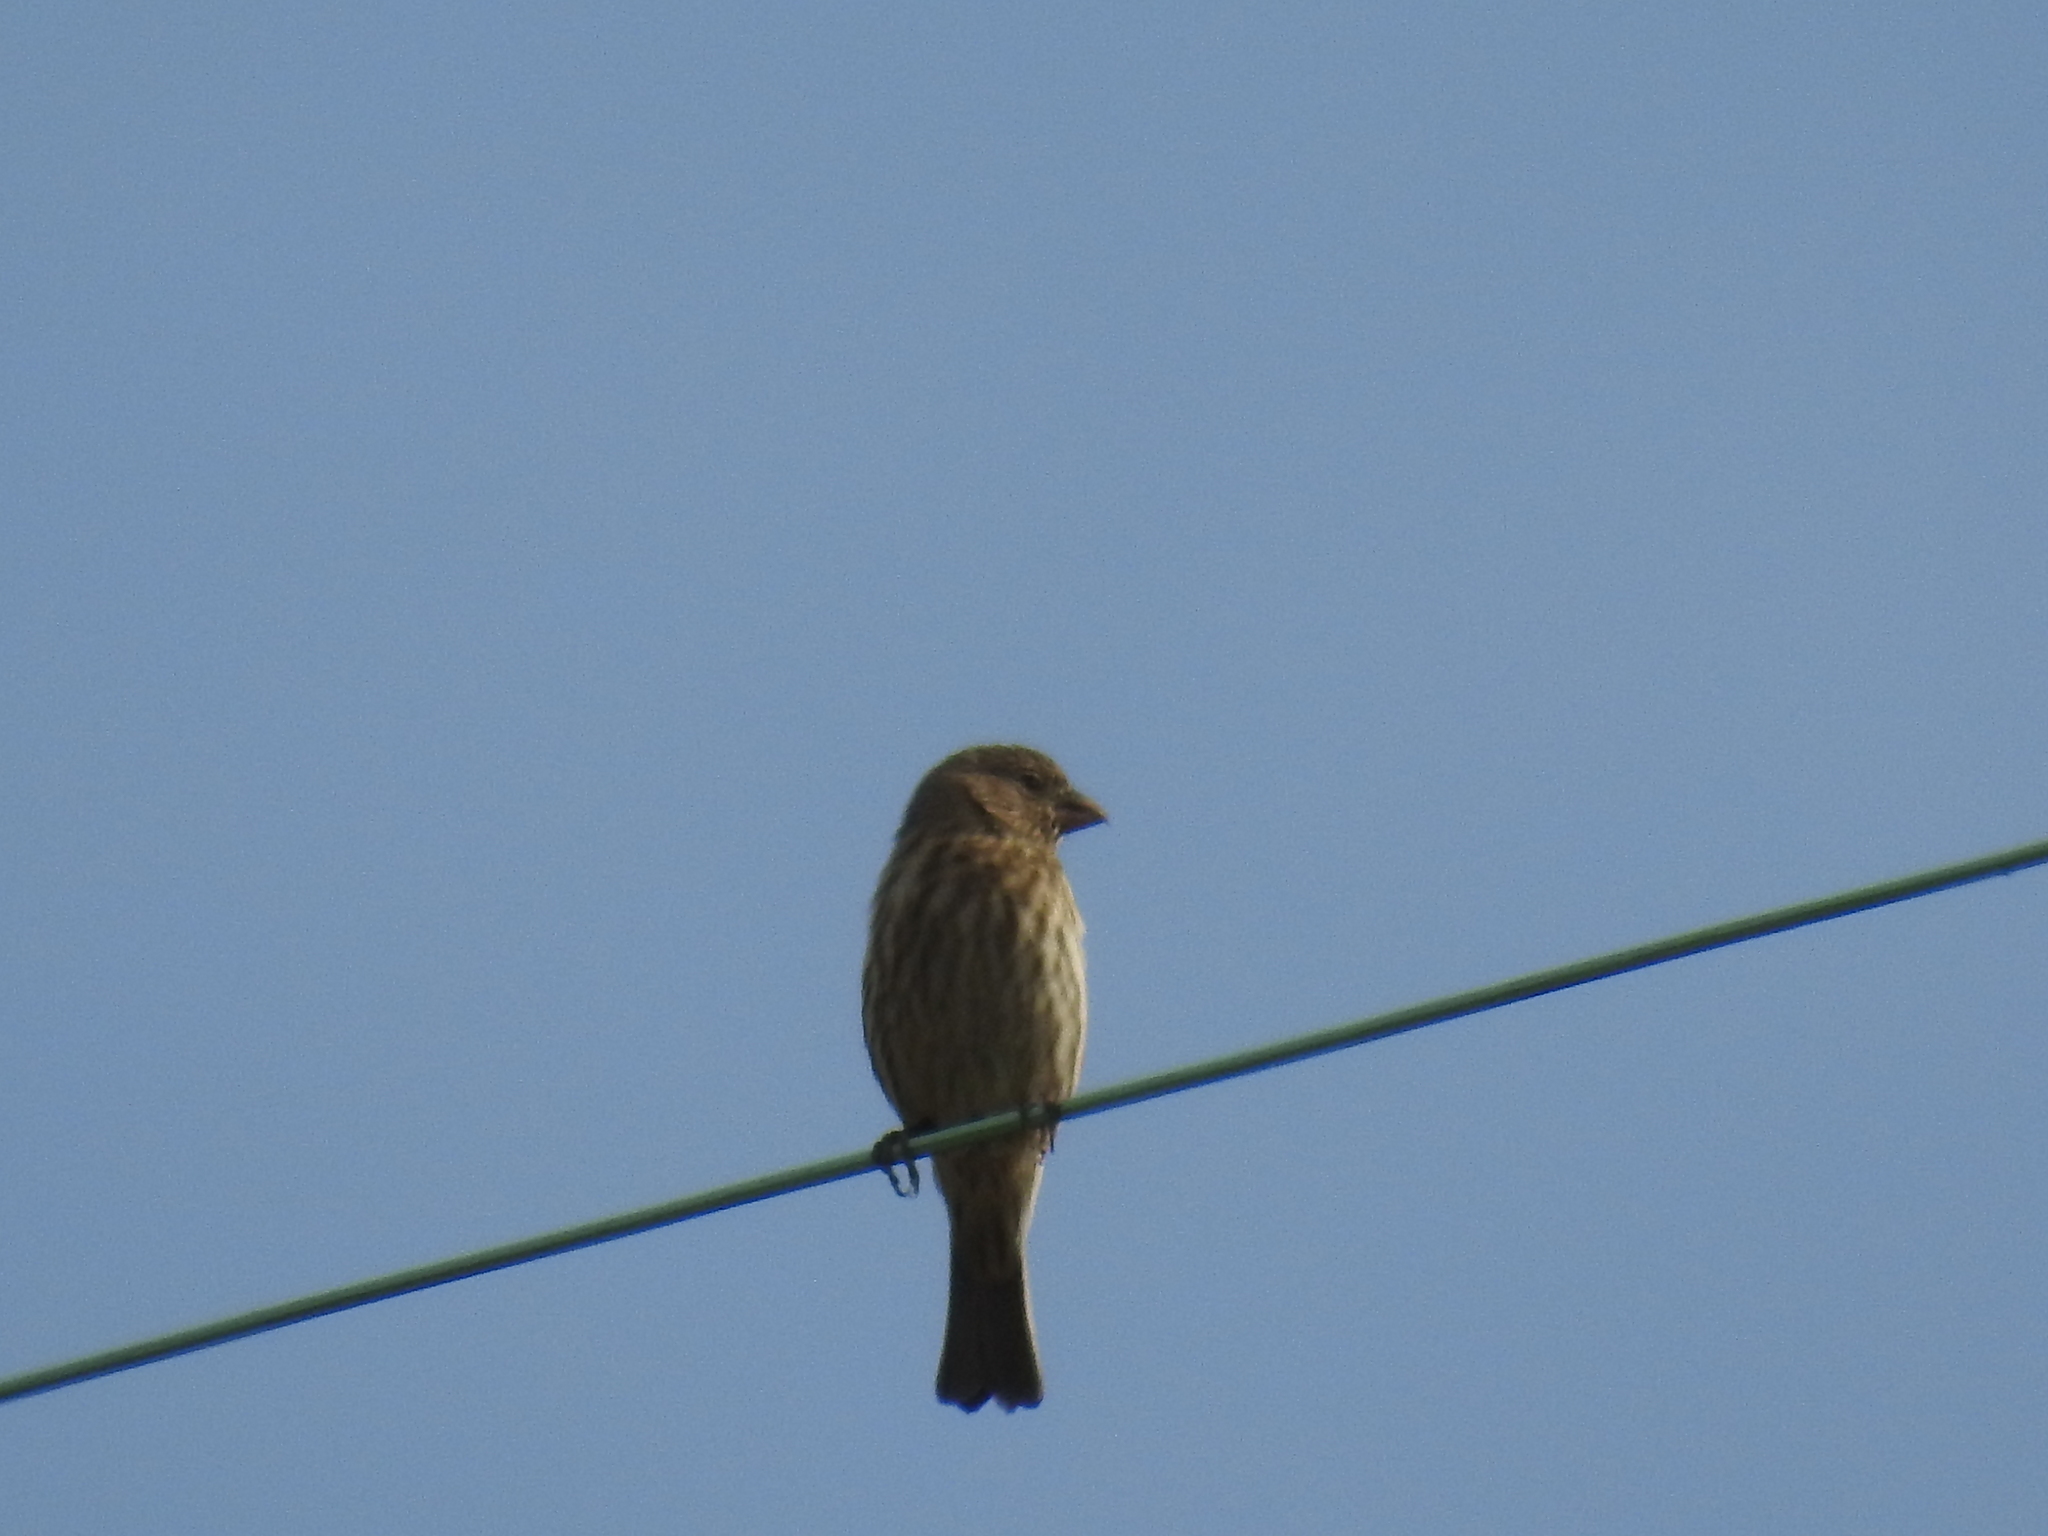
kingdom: Animalia
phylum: Chordata
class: Aves
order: Passeriformes
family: Fringillidae
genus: Haemorhous
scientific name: Haemorhous mexicanus
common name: House finch
